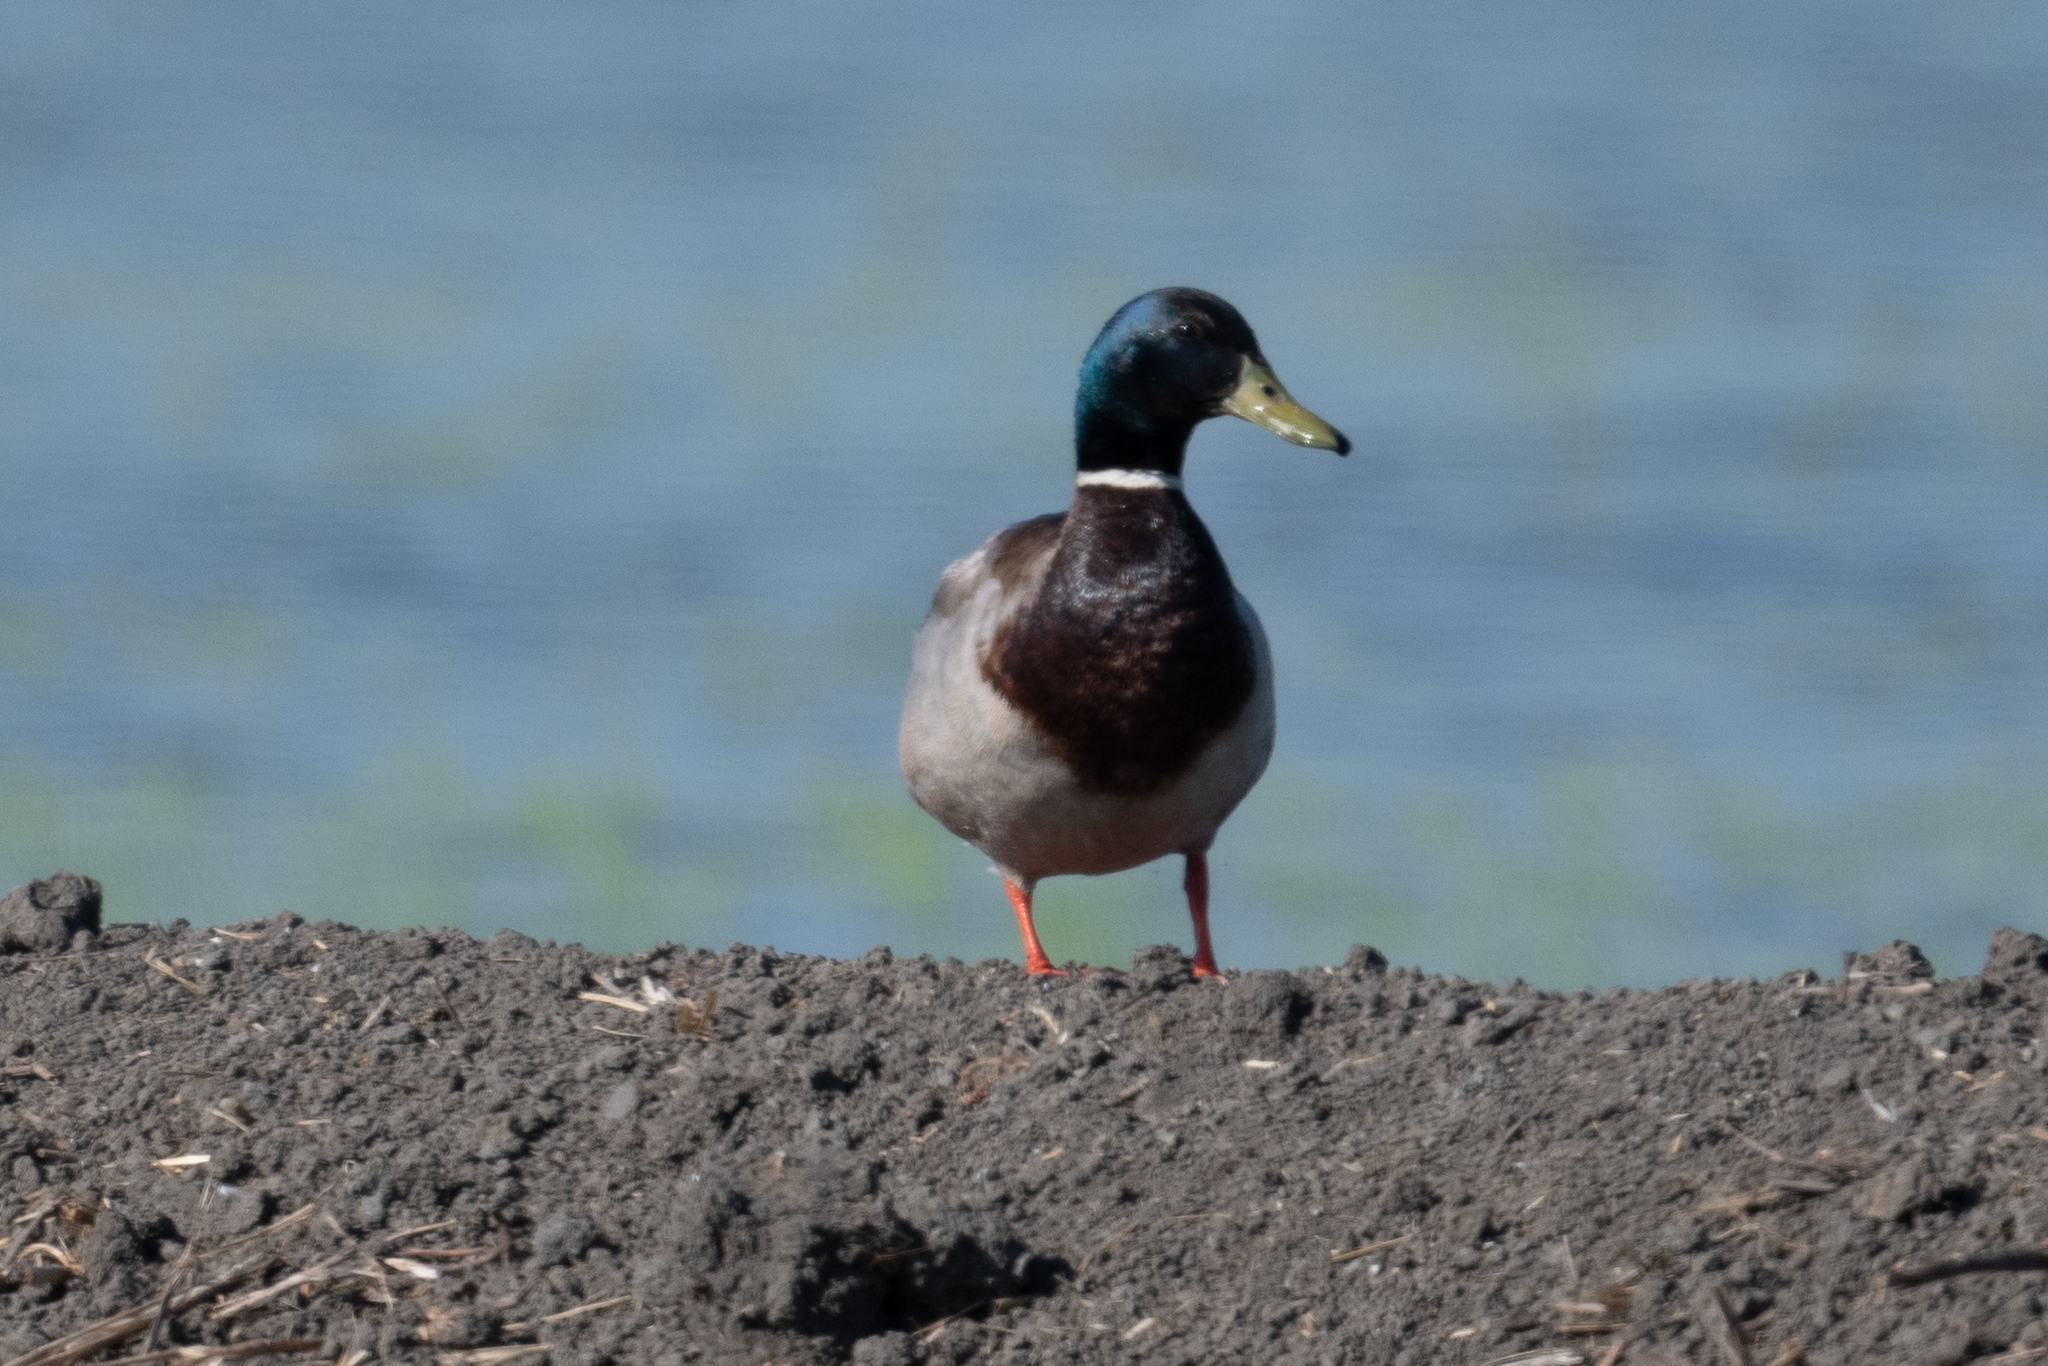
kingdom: Animalia
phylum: Chordata
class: Aves
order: Anseriformes
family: Anatidae
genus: Anas
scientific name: Anas platyrhynchos
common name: Mallard
